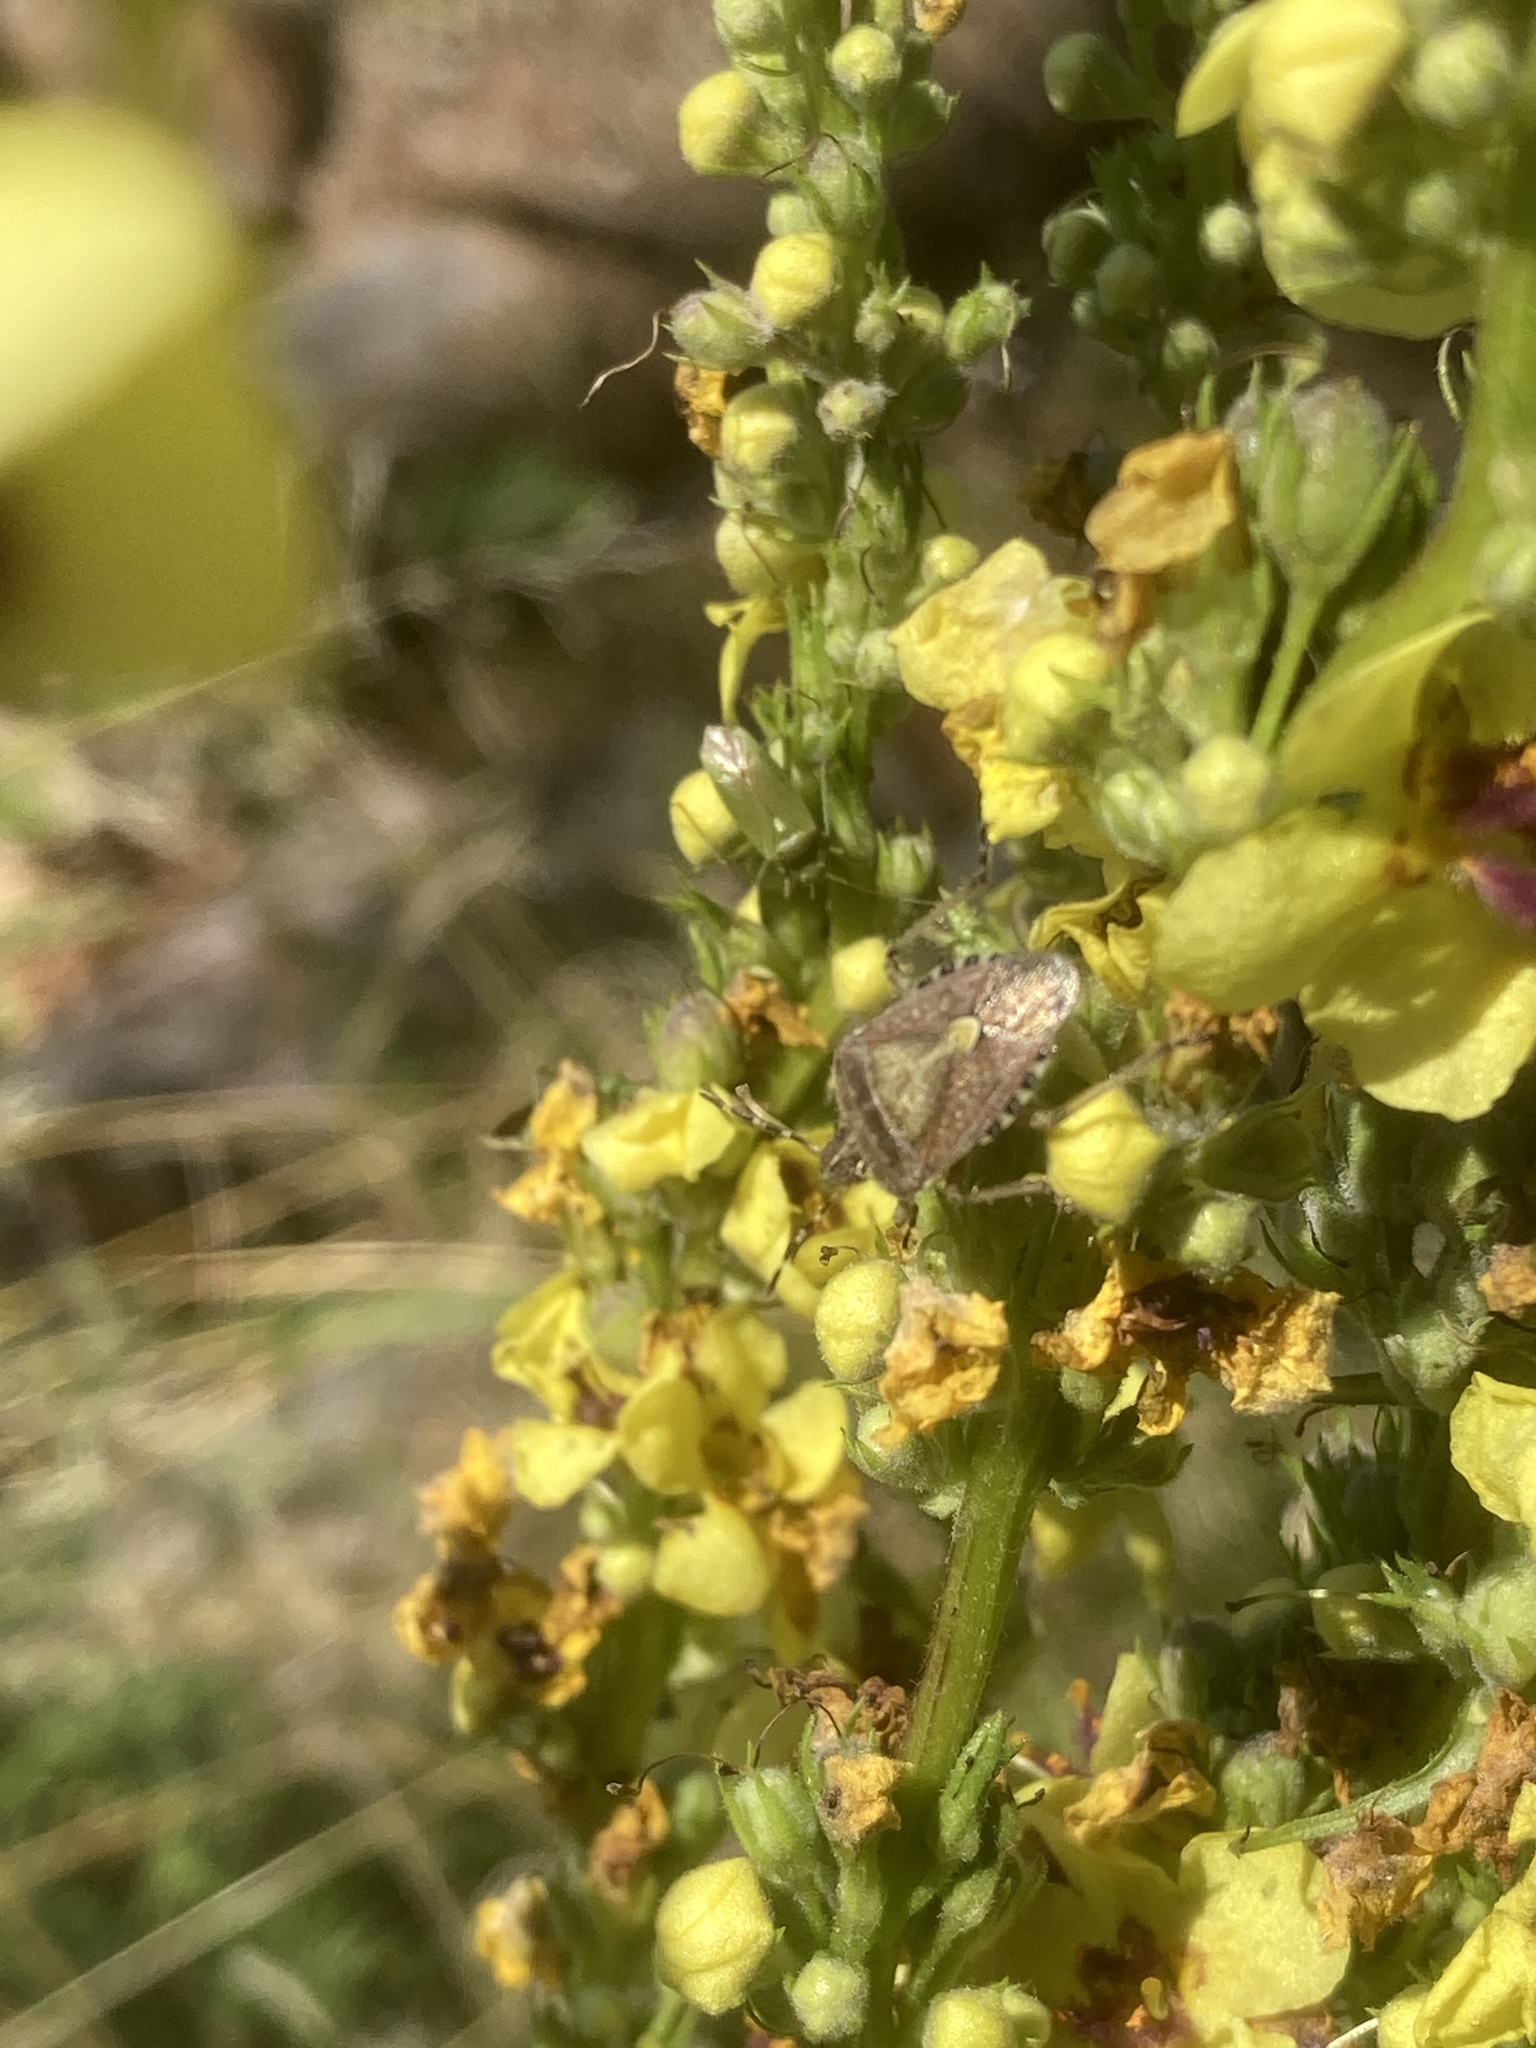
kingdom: Animalia
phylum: Arthropoda
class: Insecta
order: Hemiptera
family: Pentatomidae
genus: Dolycoris
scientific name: Dolycoris baccarum
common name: Sloe bug
